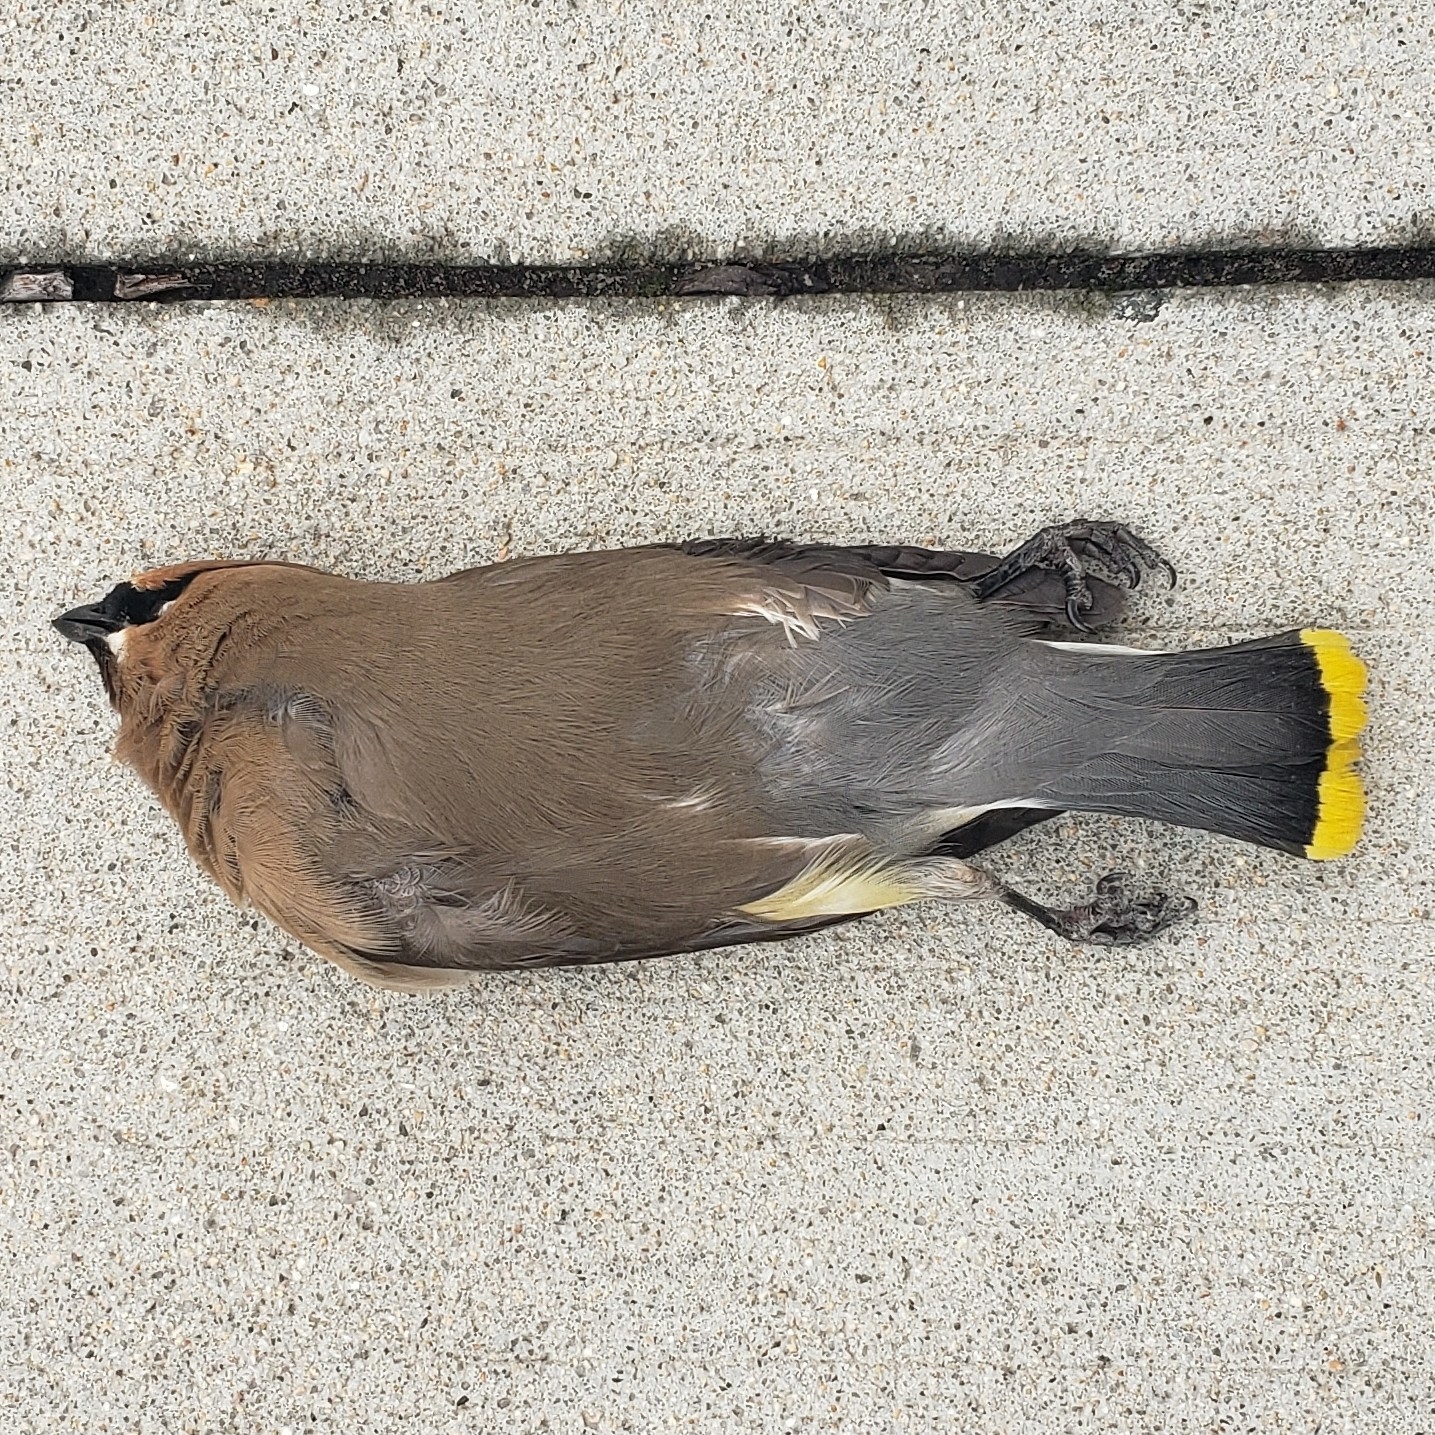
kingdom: Animalia
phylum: Chordata
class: Aves
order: Passeriformes
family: Bombycillidae
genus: Bombycilla
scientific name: Bombycilla cedrorum
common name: Cedar waxwing
